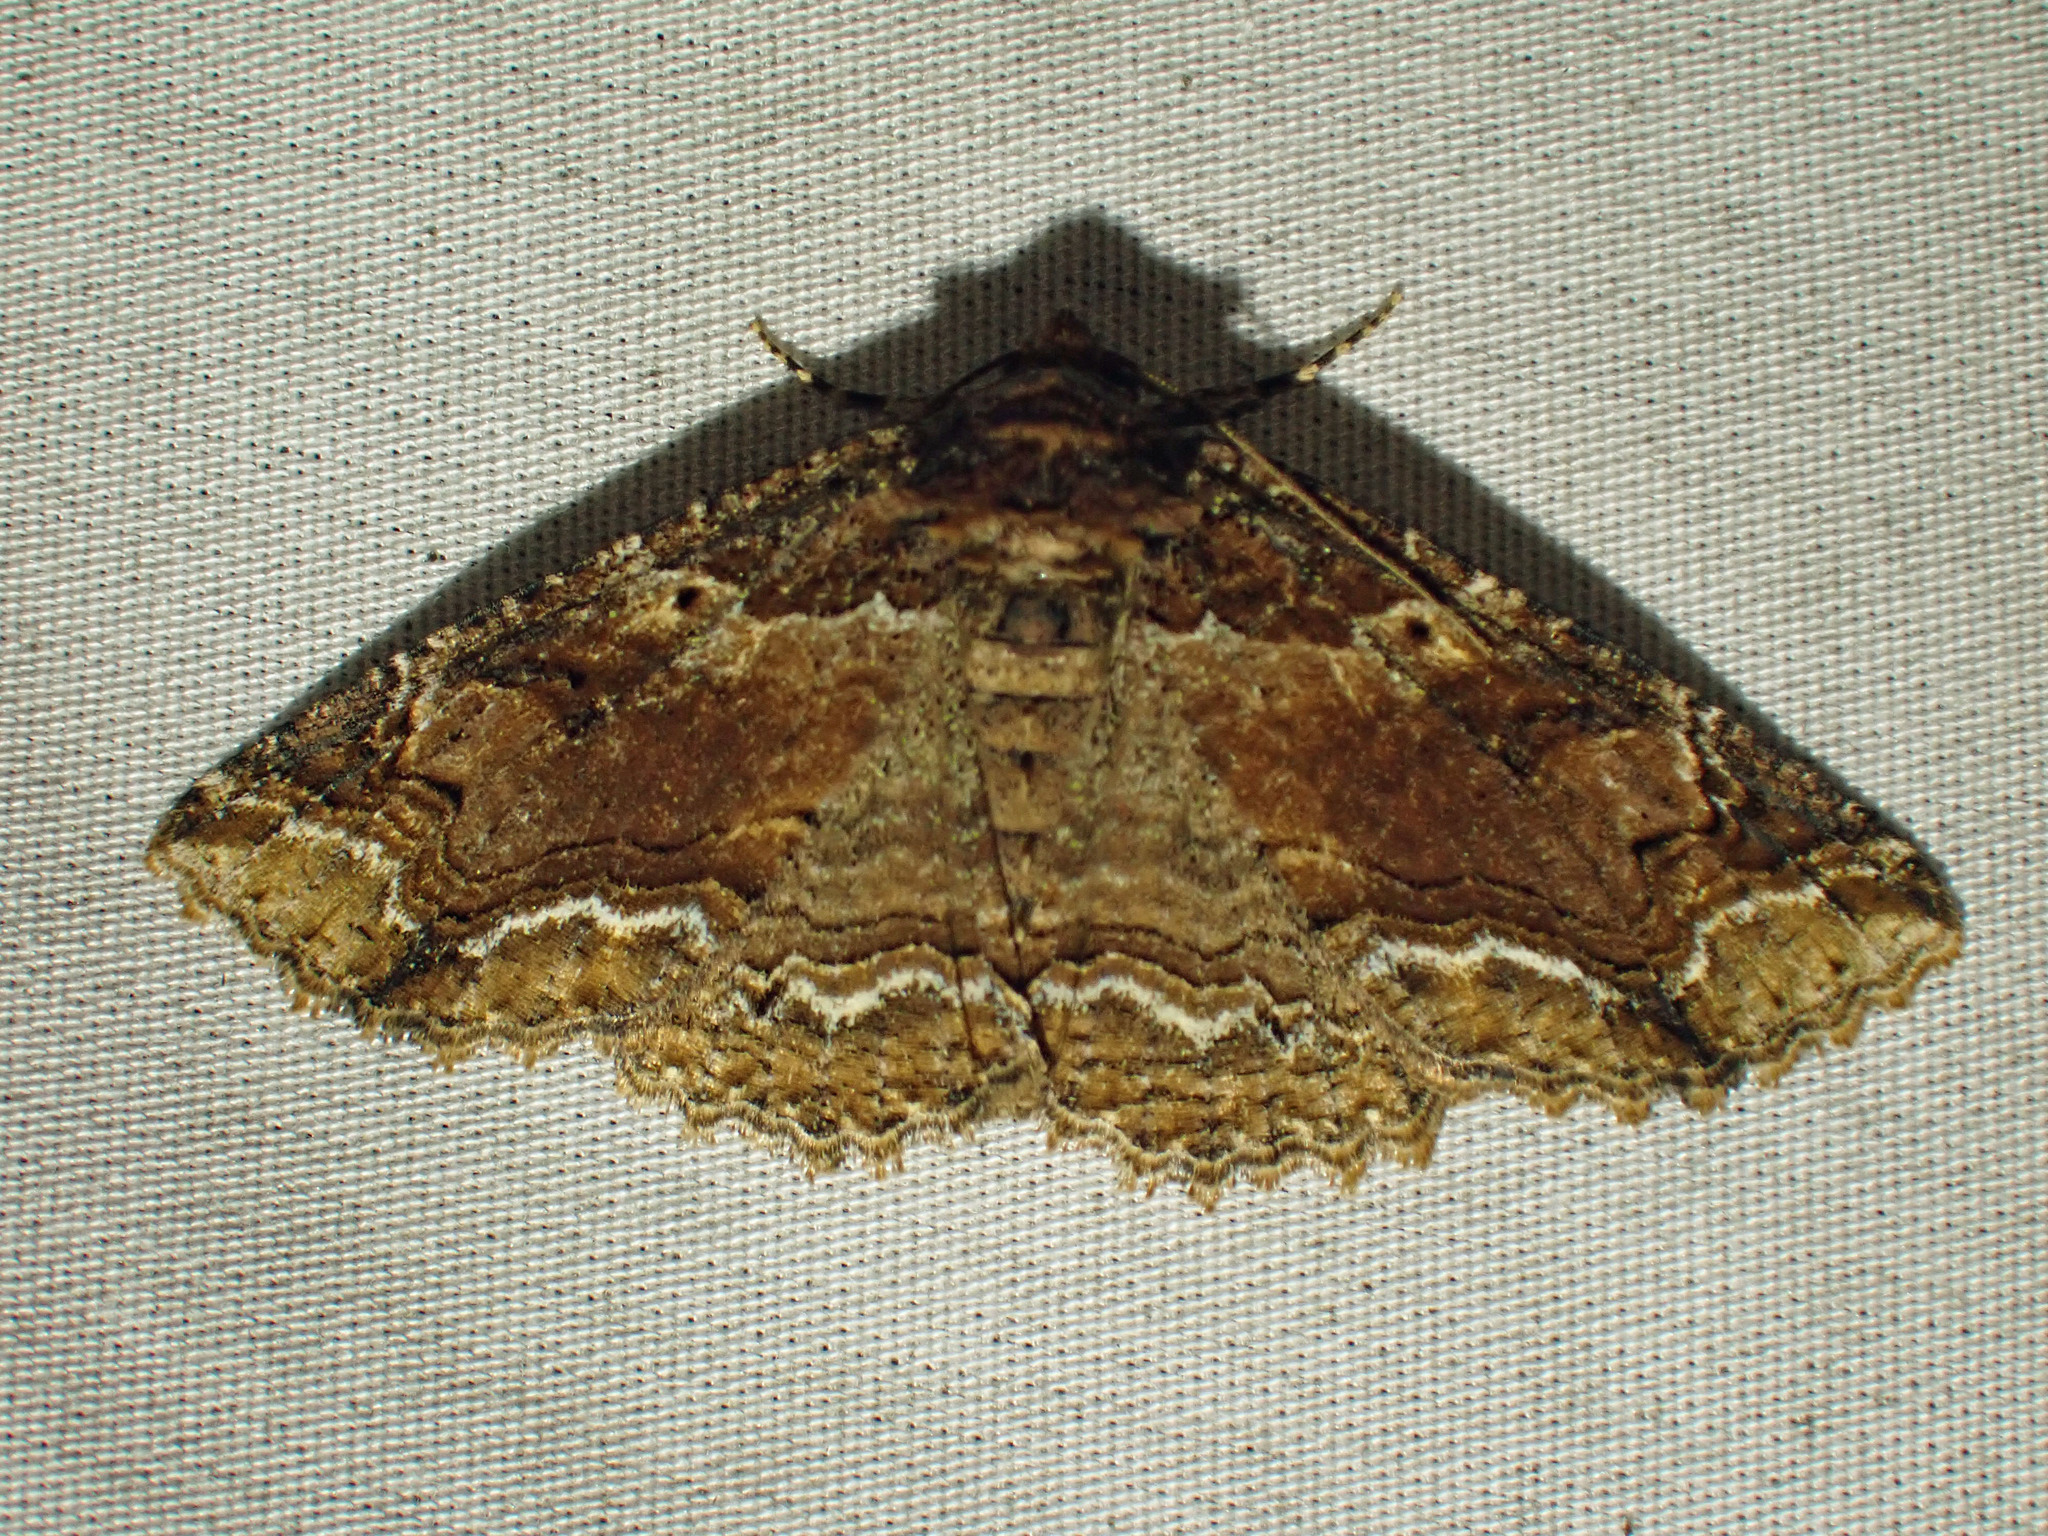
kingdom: Animalia
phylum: Arthropoda
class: Insecta
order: Lepidoptera
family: Erebidae
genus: Zale
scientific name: Zale minerea
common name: Colorful zale moth
